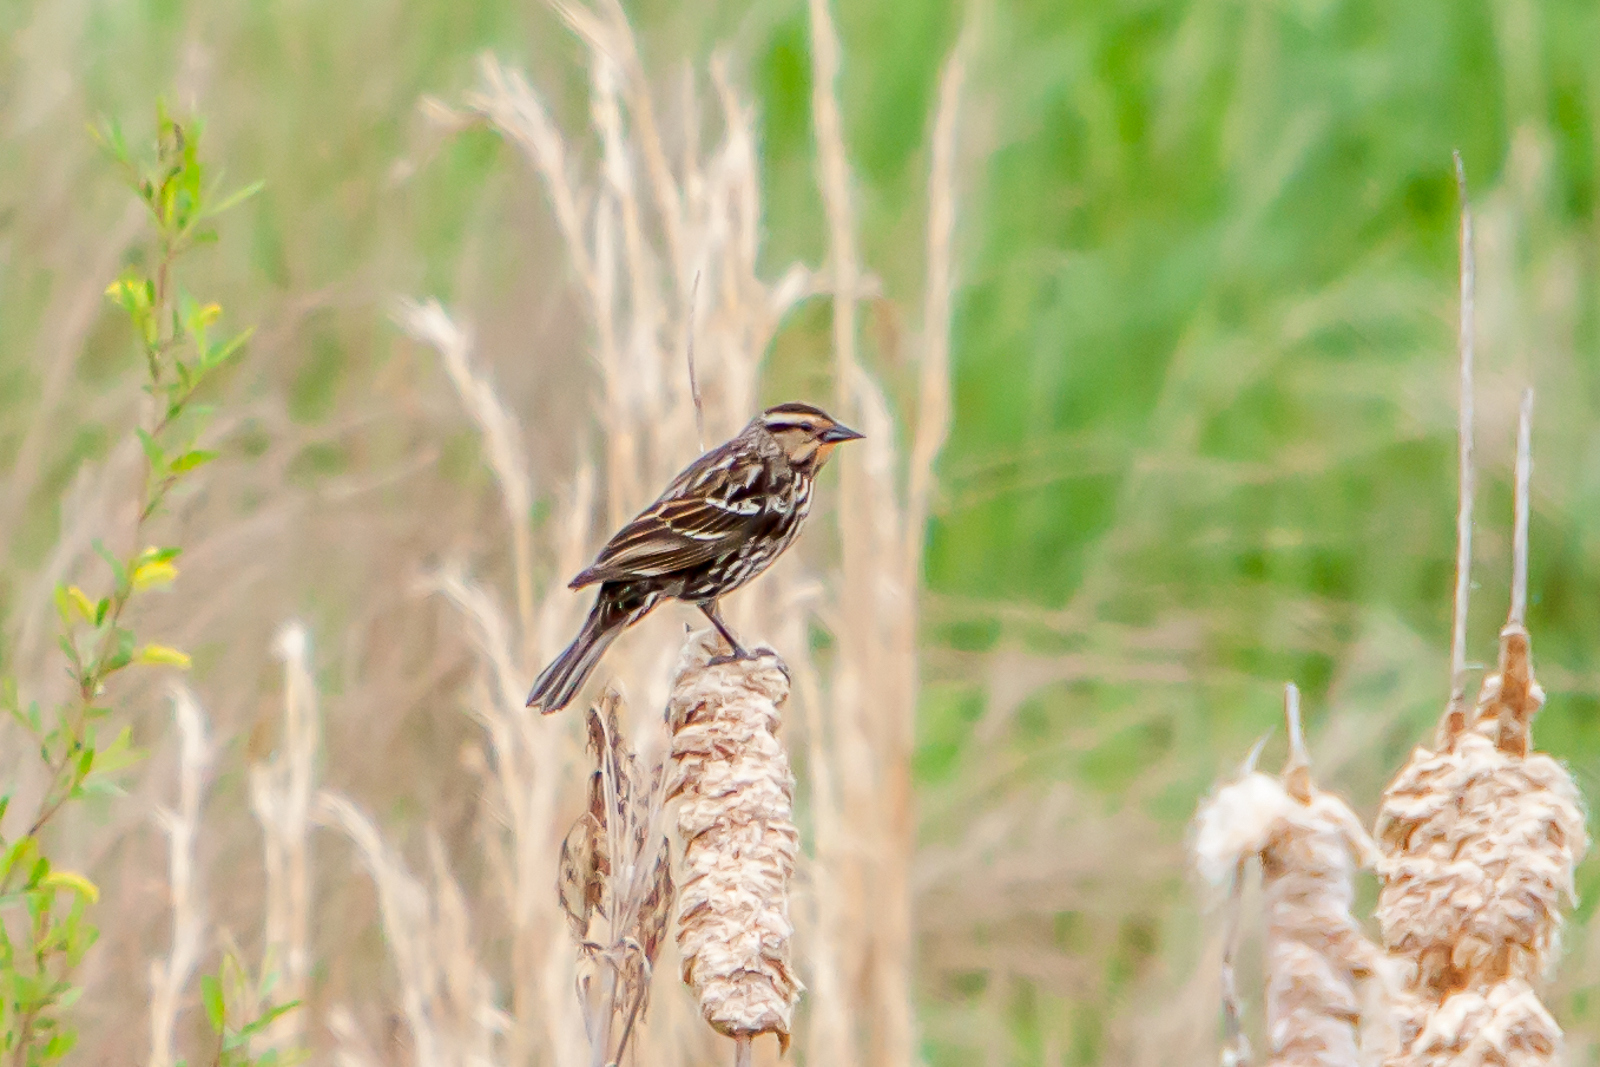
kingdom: Animalia
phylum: Chordata
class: Aves
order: Passeriformes
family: Icteridae
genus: Agelaius
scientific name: Agelaius phoeniceus
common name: Red-winged blackbird
